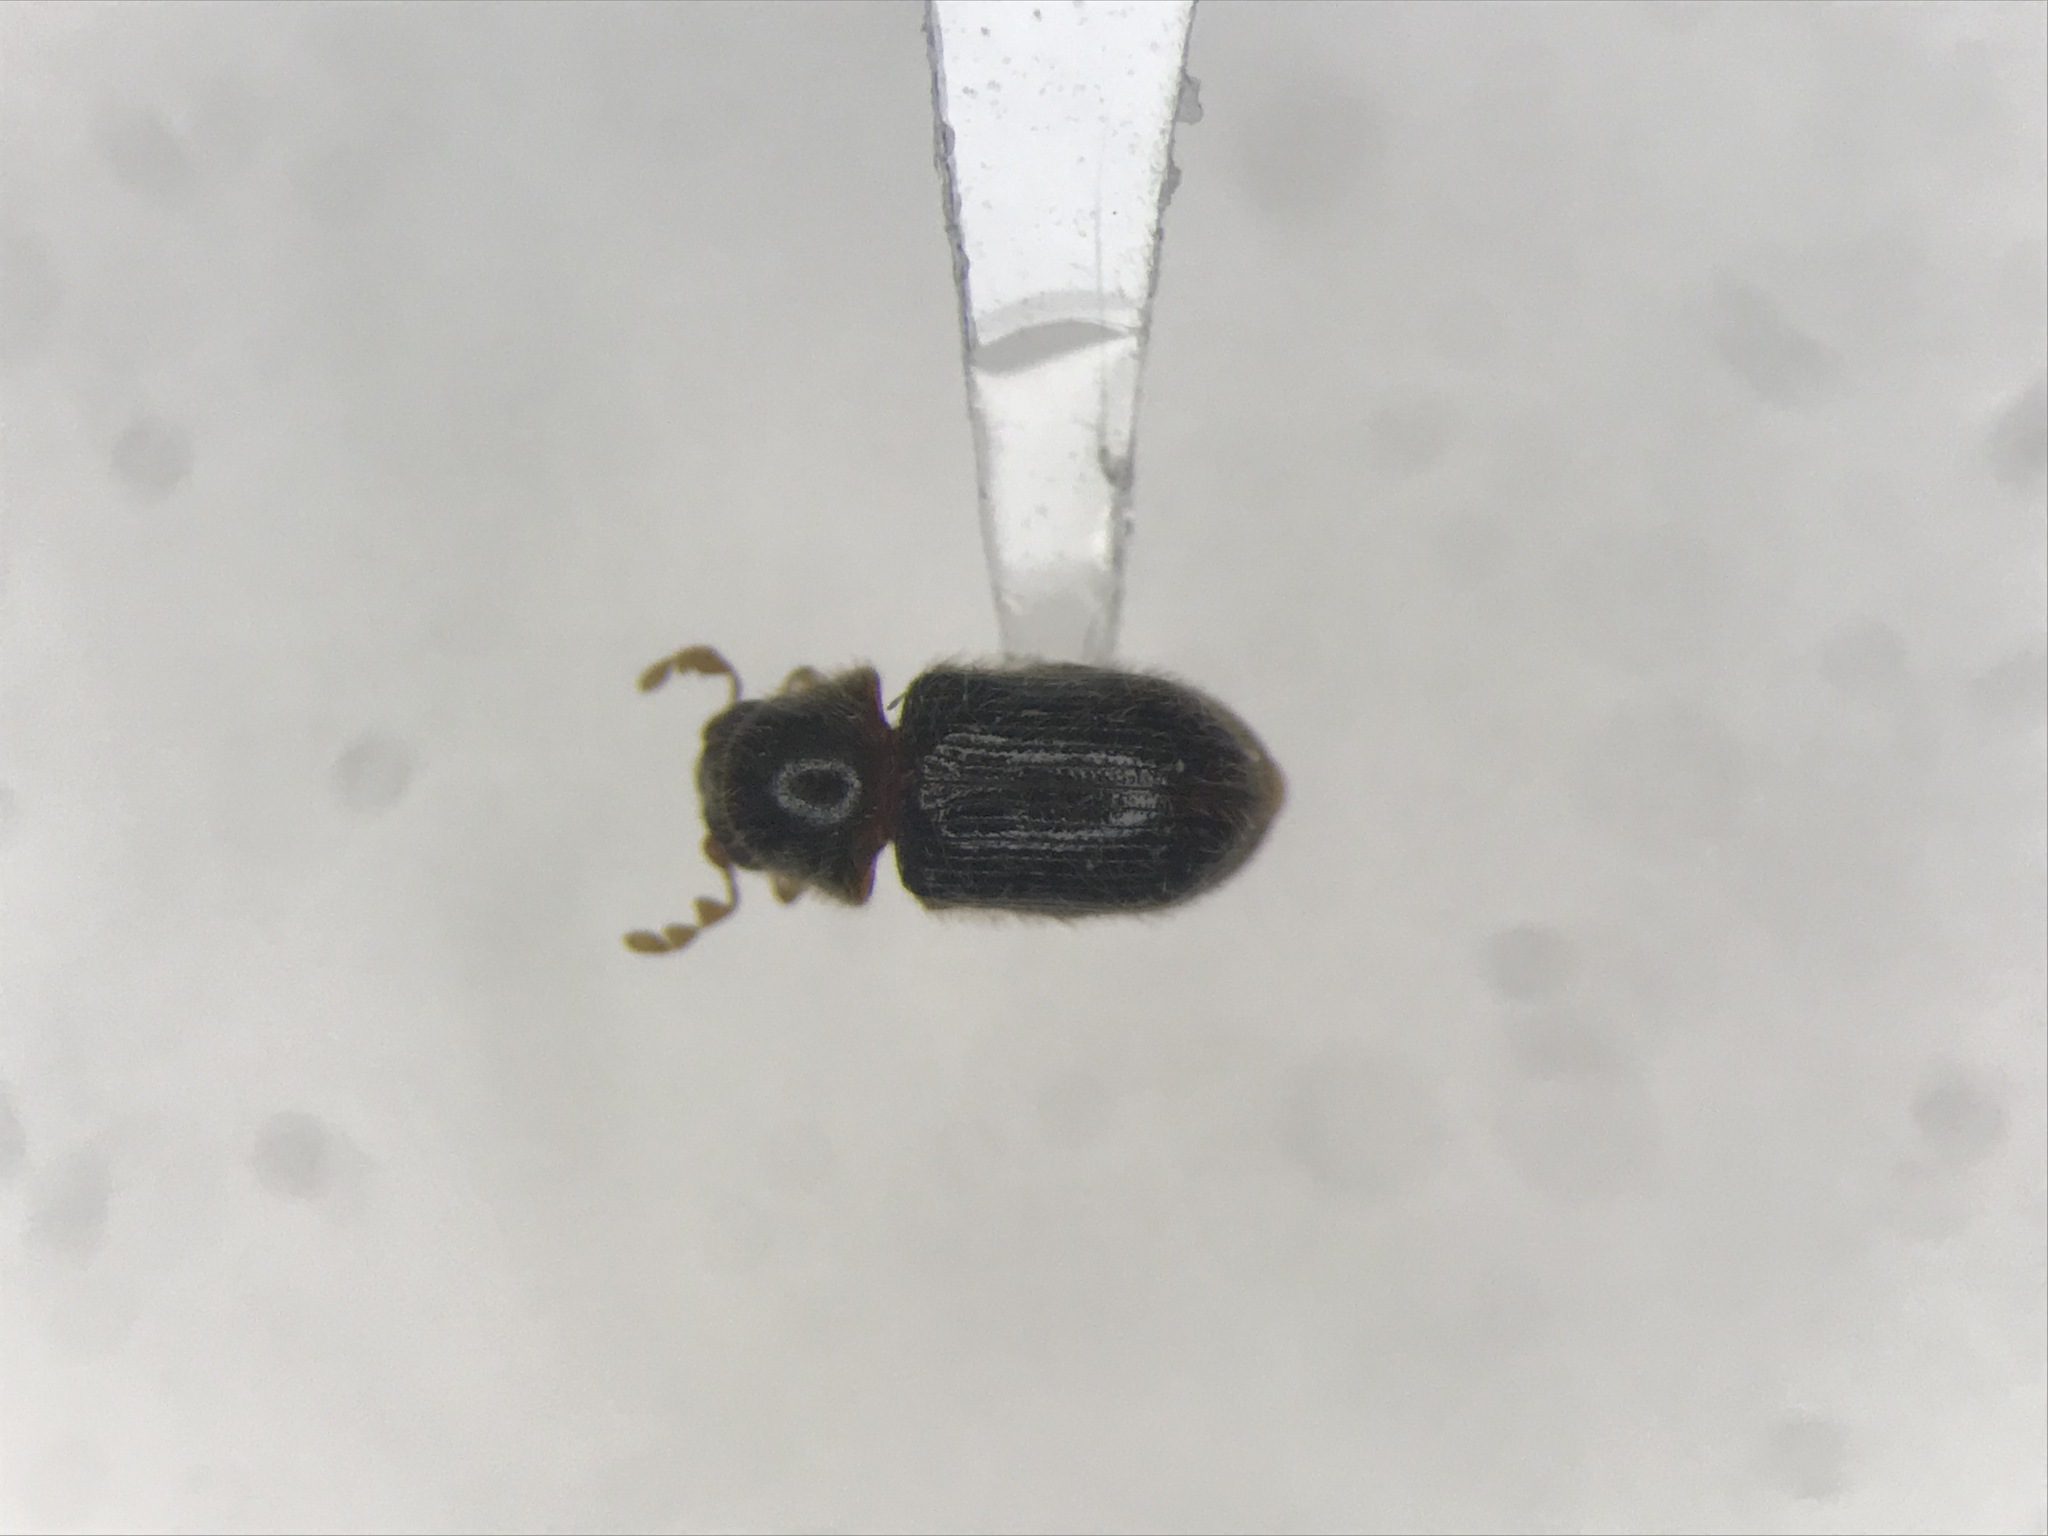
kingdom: Animalia
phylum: Arthropoda
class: Insecta
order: Coleoptera
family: Anobiidae
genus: Striatheca
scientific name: Striatheca lineata
